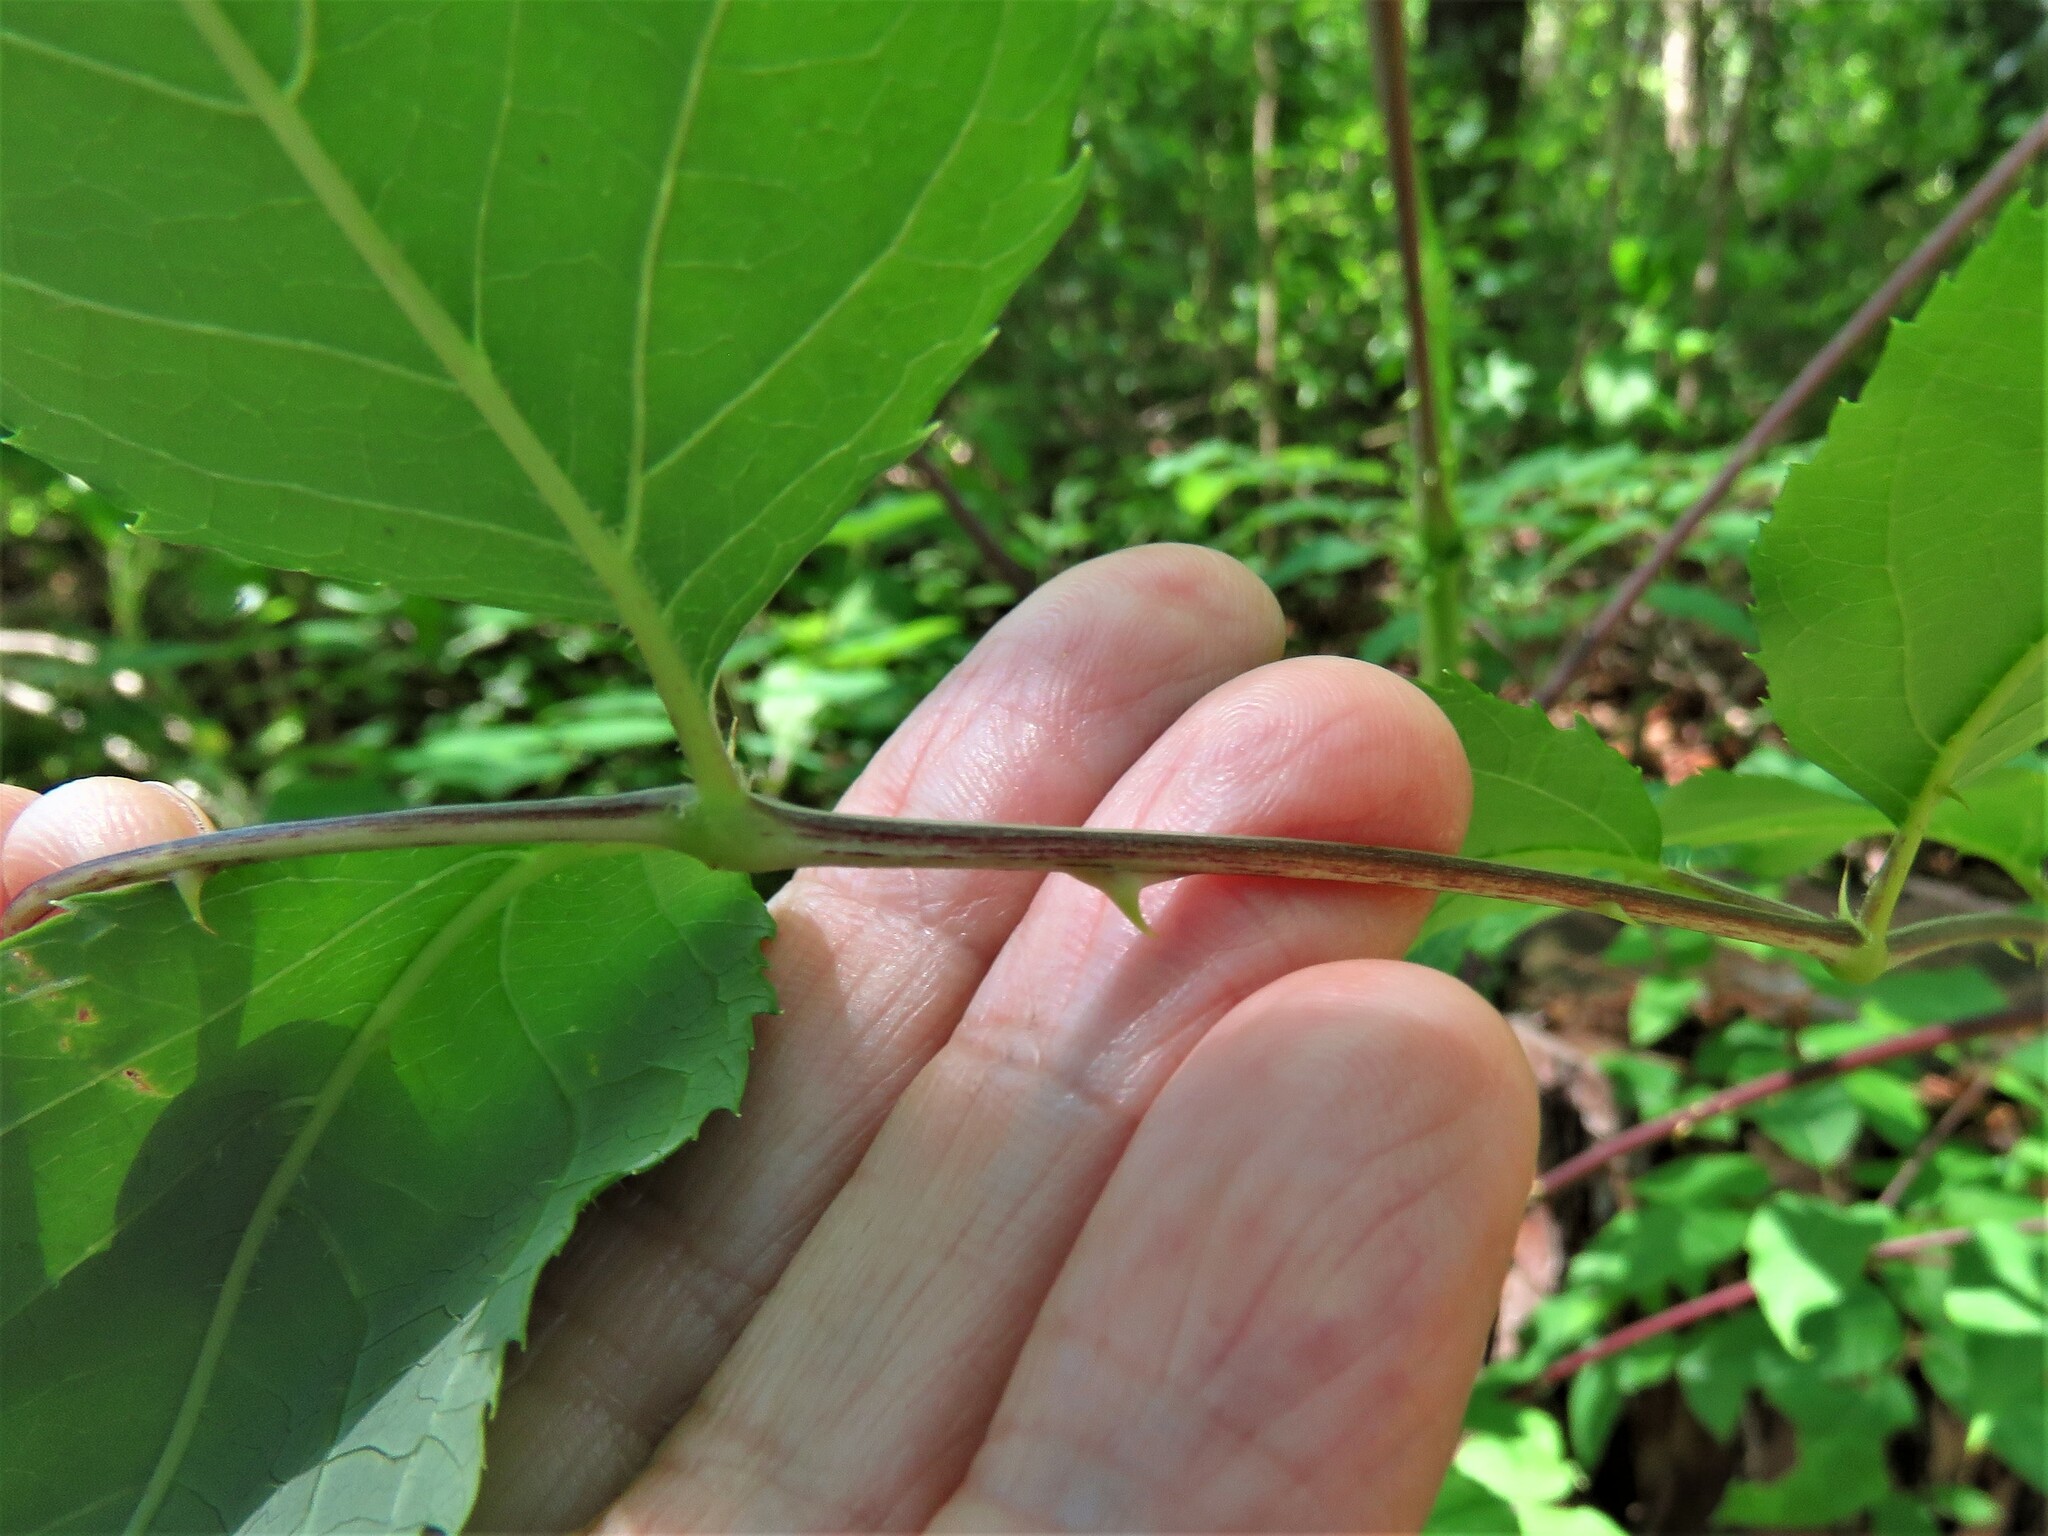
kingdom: Plantae
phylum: Tracheophyta
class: Magnoliopsida
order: Apiales
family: Araliaceae
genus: Aralia
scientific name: Aralia spinosa
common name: Hercules'-club
